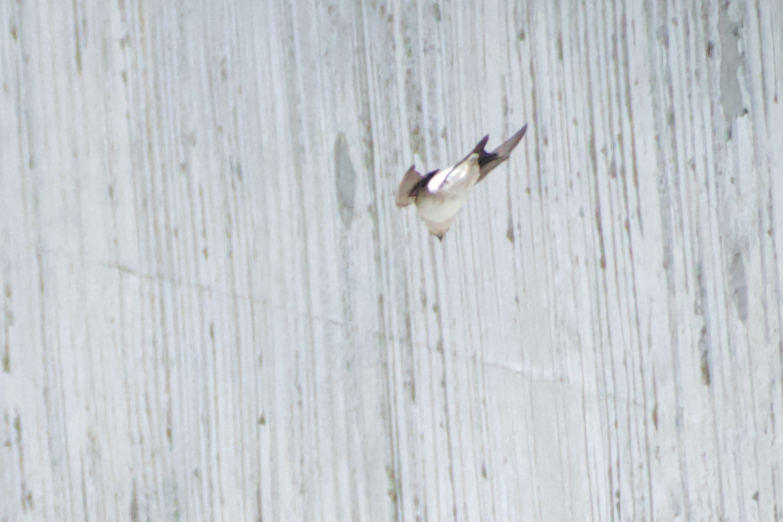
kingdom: Animalia
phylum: Chordata
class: Aves
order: Passeriformes
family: Hirundinidae
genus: Delichon
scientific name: Delichon urbicum
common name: Common house martin
